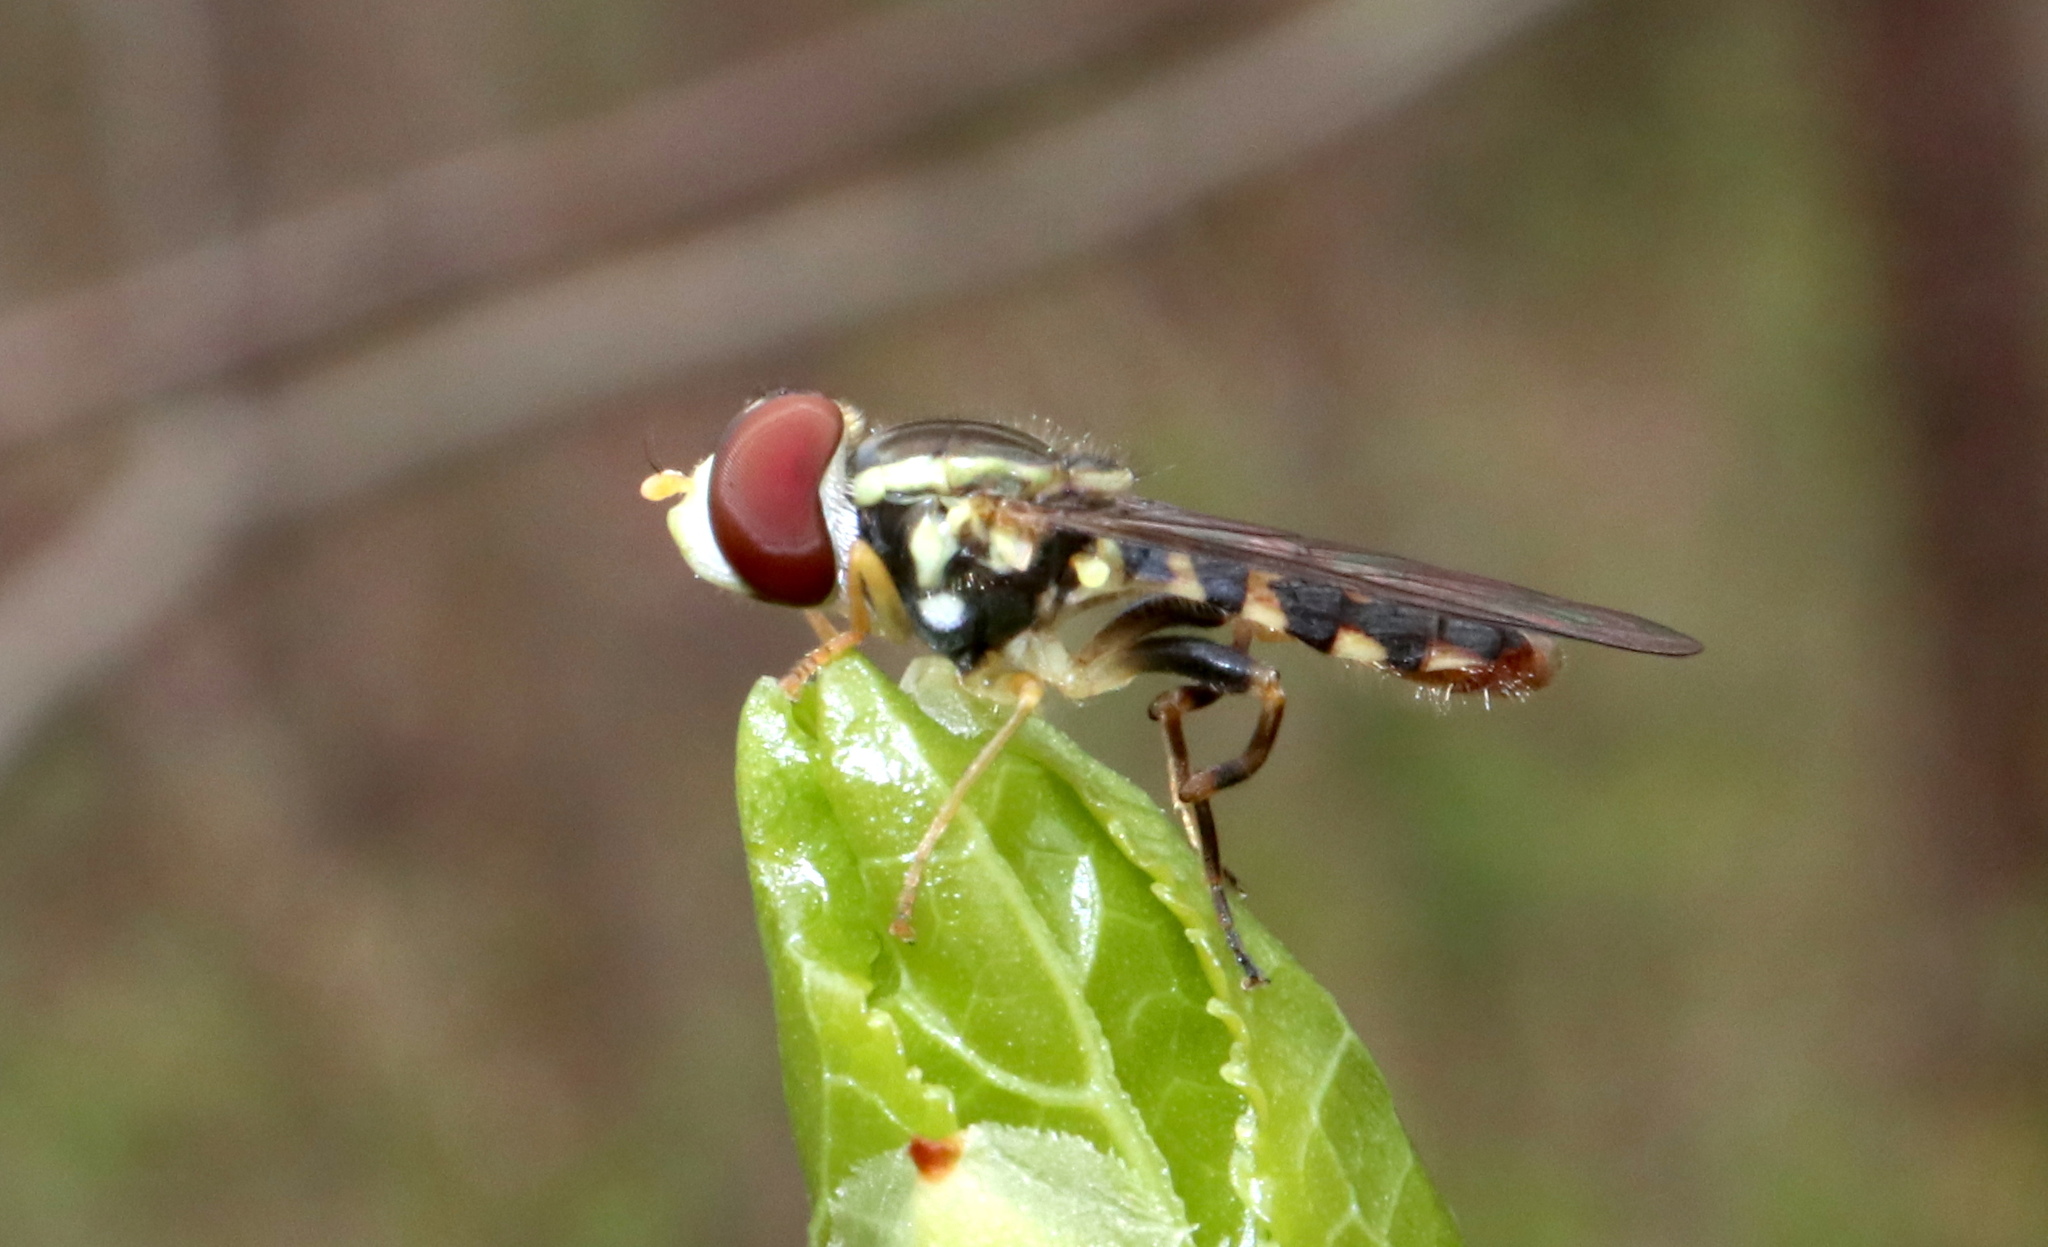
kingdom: Animalia
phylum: Arthropoda
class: Insecta
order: Diptera
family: Syrphidae
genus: Toxomerus
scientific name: Toxomerus geminatus
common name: Eastern calligrapher
